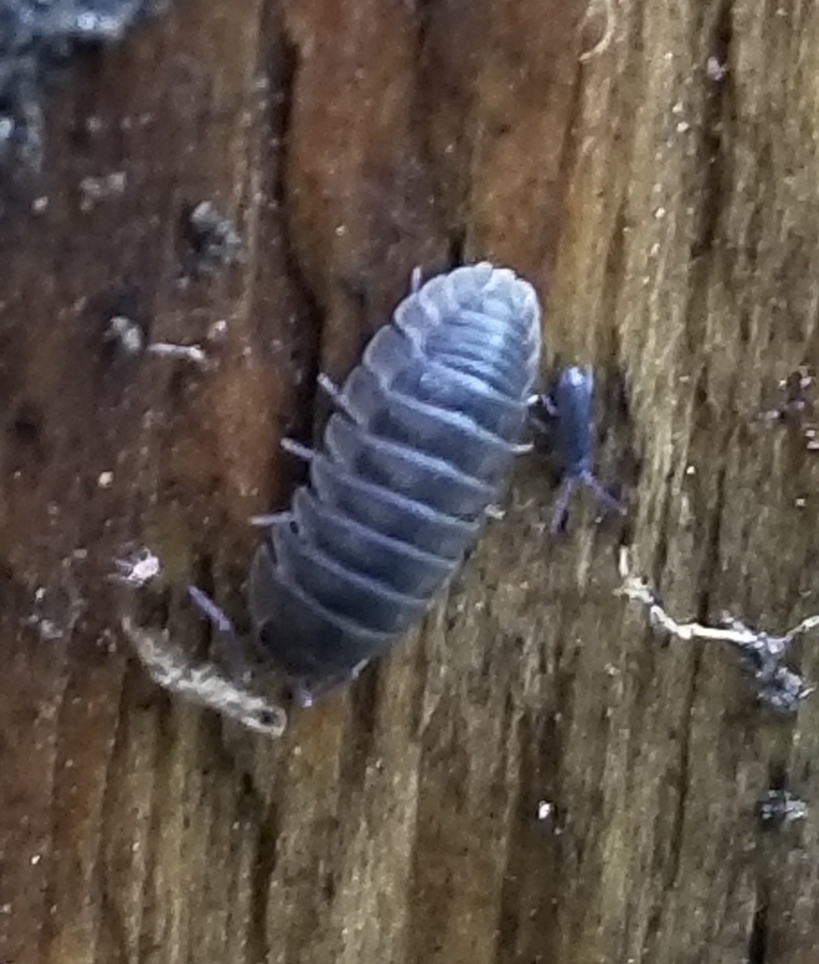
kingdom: Animalia
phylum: Arthropoda
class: Malacostraca
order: Isopoda
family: Armadillidiidae
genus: Armadillidium
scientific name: Armadillidium nasatum
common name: Isopod
